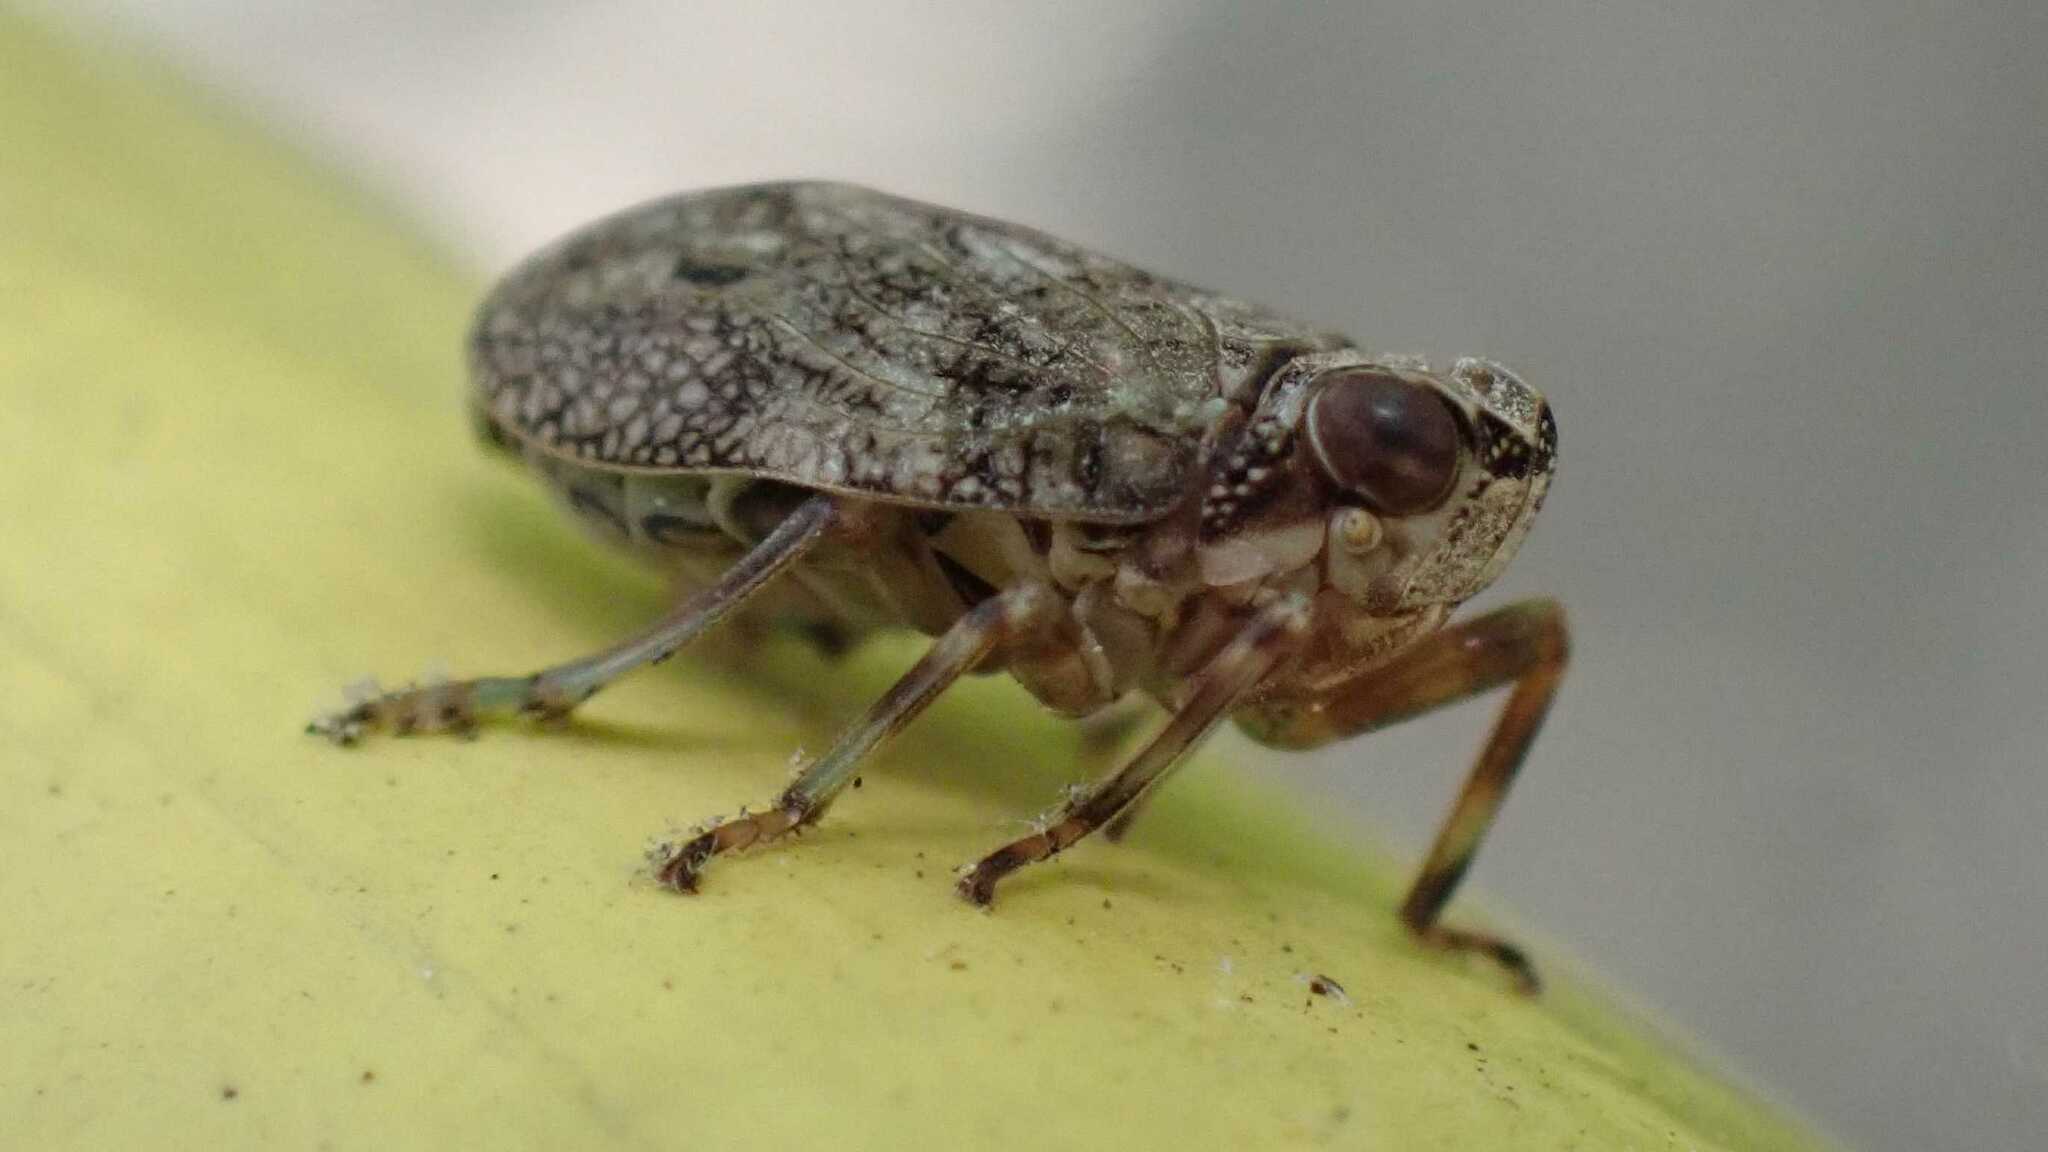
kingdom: Animalia
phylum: Arthropoda
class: Insecta
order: Hemiptera
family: Issidae
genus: Issus
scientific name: Issus coleoptratus
